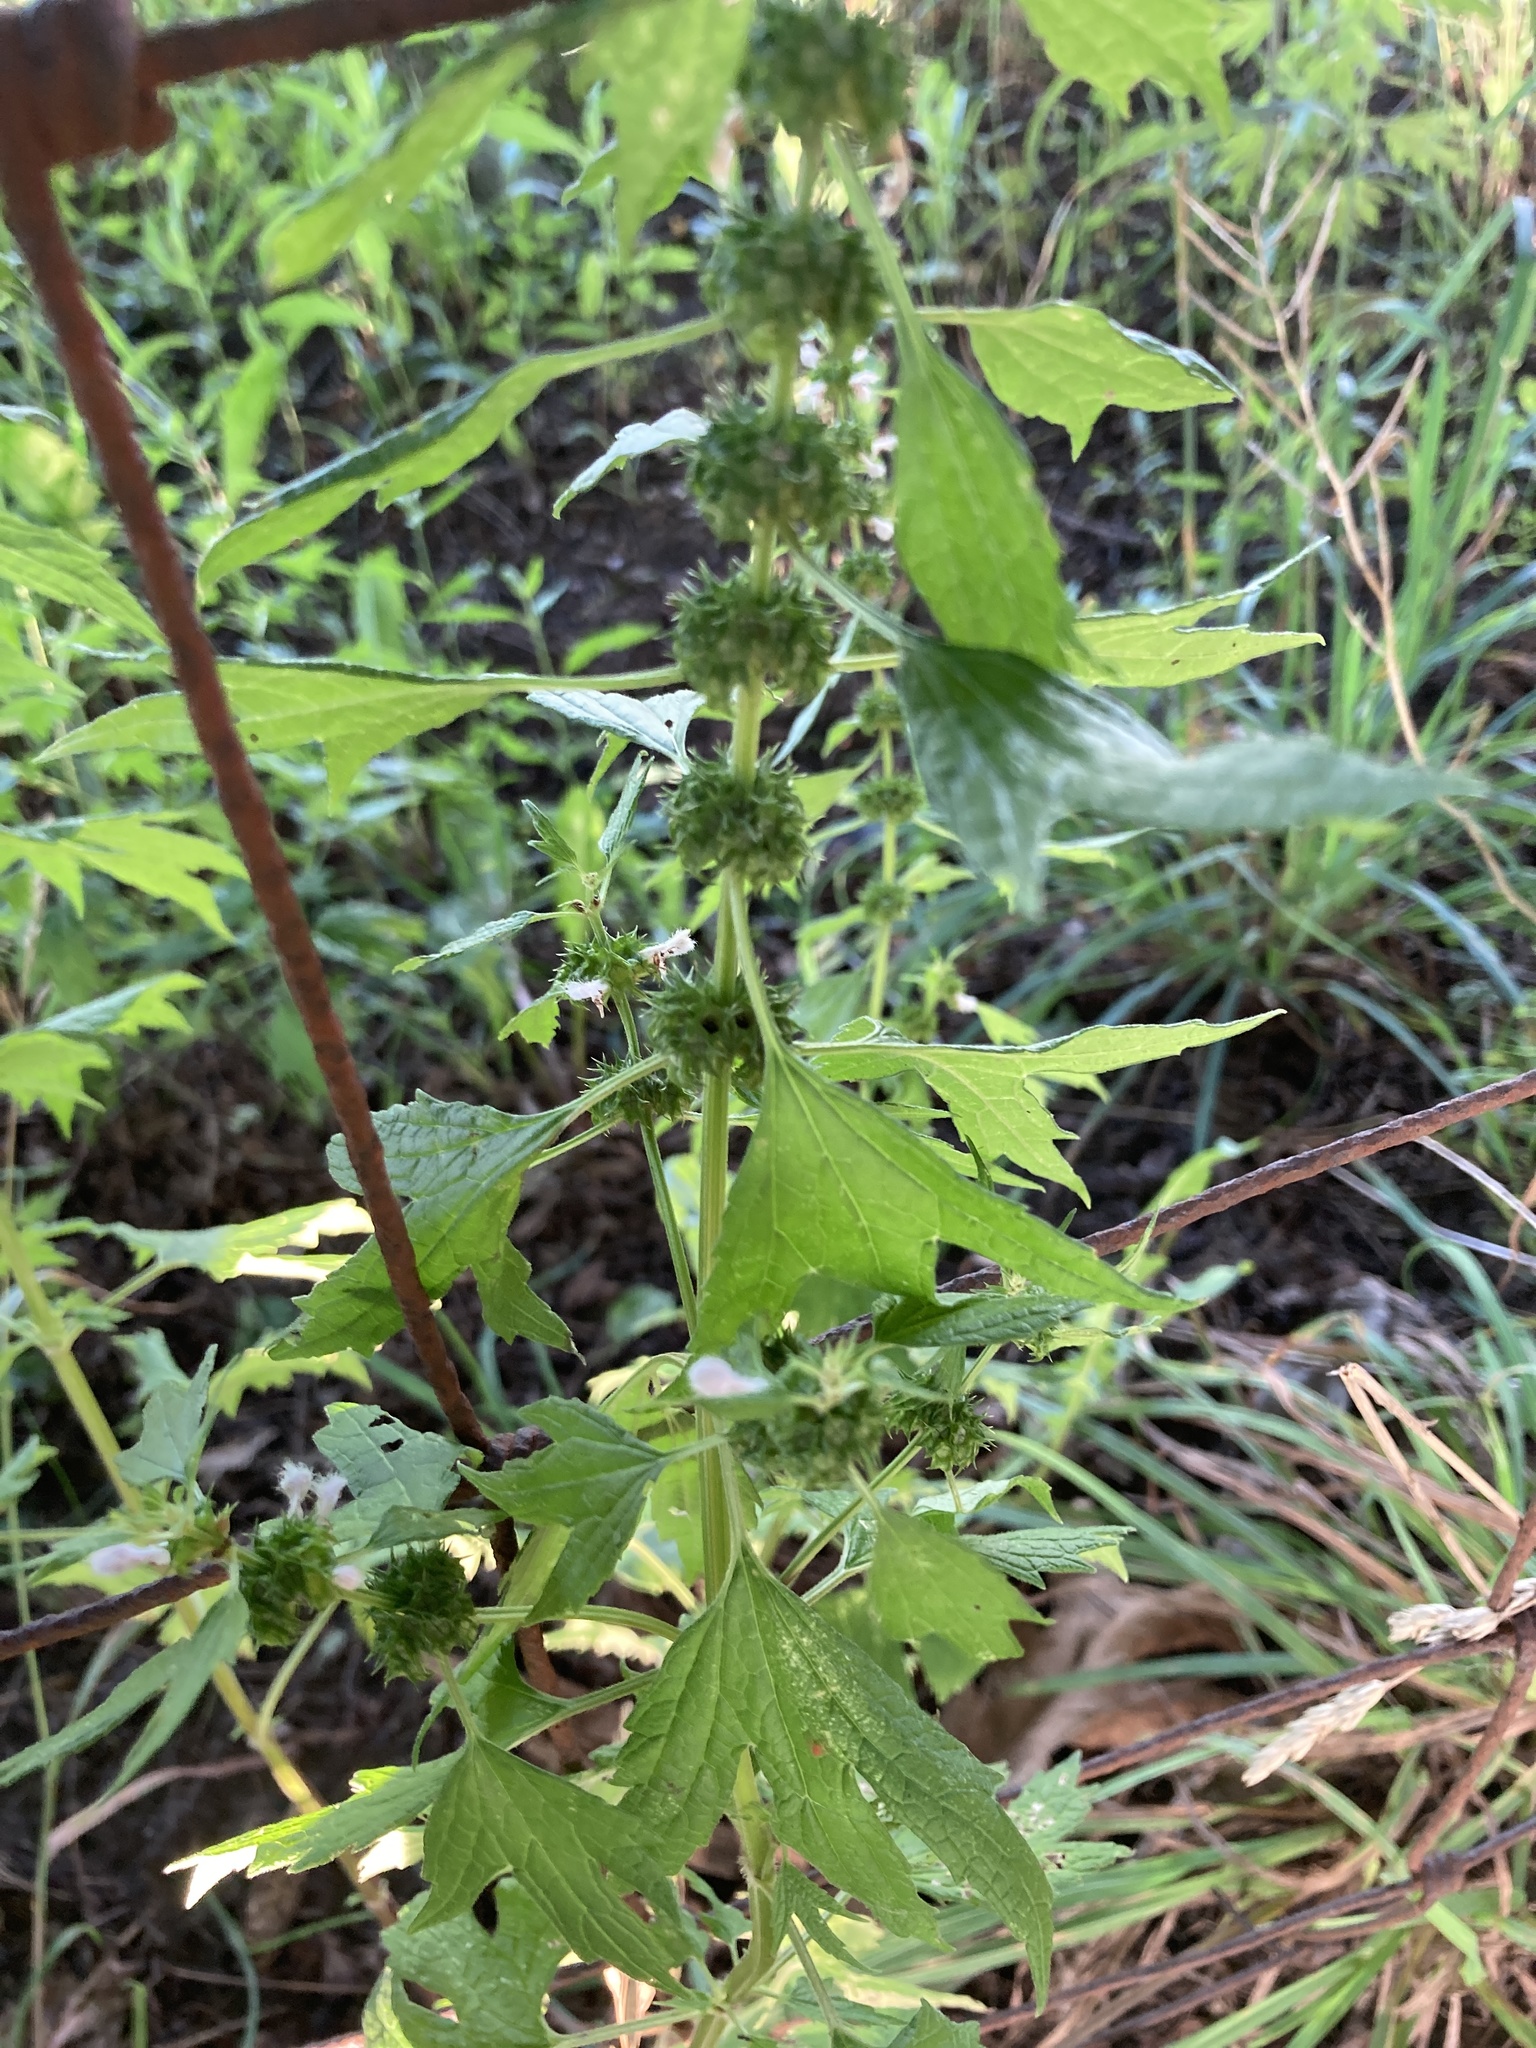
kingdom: Plantae
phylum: Tracheophyta
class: Magnoliopsida
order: Lamiales
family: Lamiaceae
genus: Leonurus
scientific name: Leonurus cardiaca
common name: Motherwort
